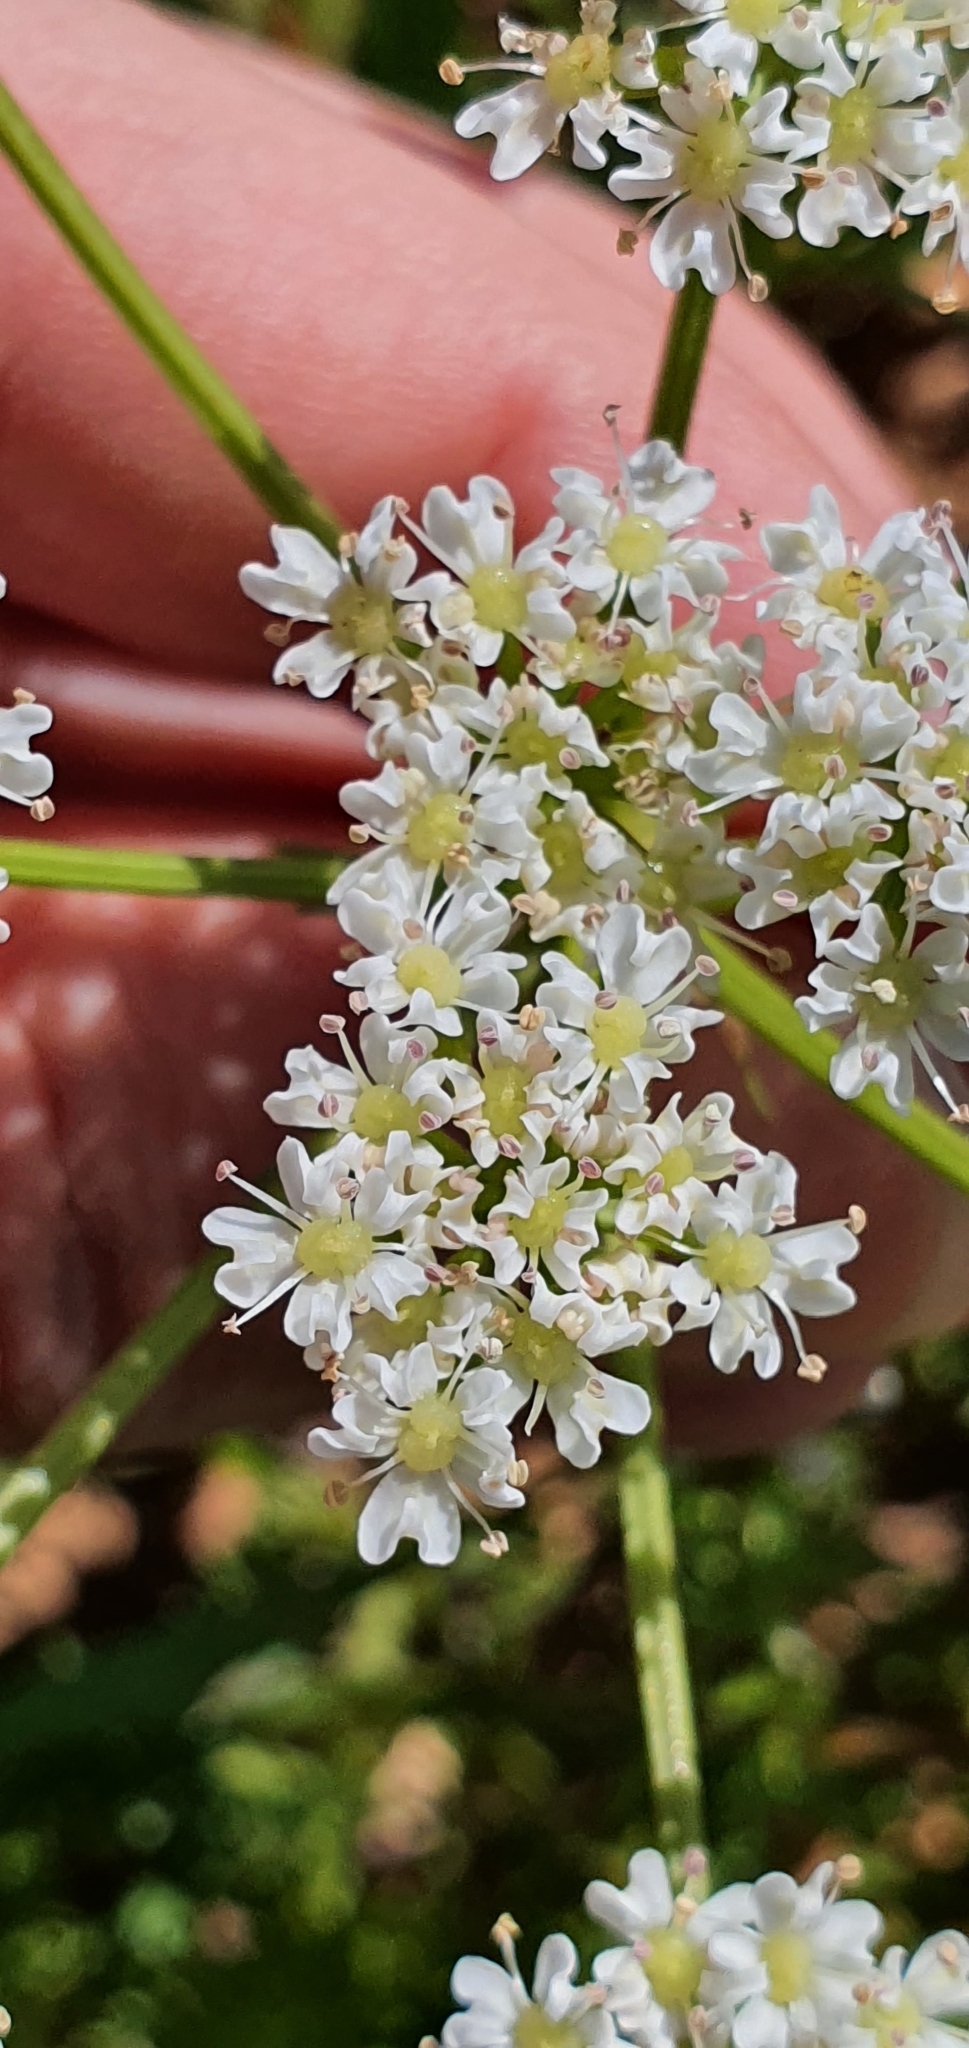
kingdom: Plantae
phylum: Tracheophyta
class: Magnoliopsida
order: Apiales
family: Apiaceae
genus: Bunium
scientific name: Bunium pachypodum
